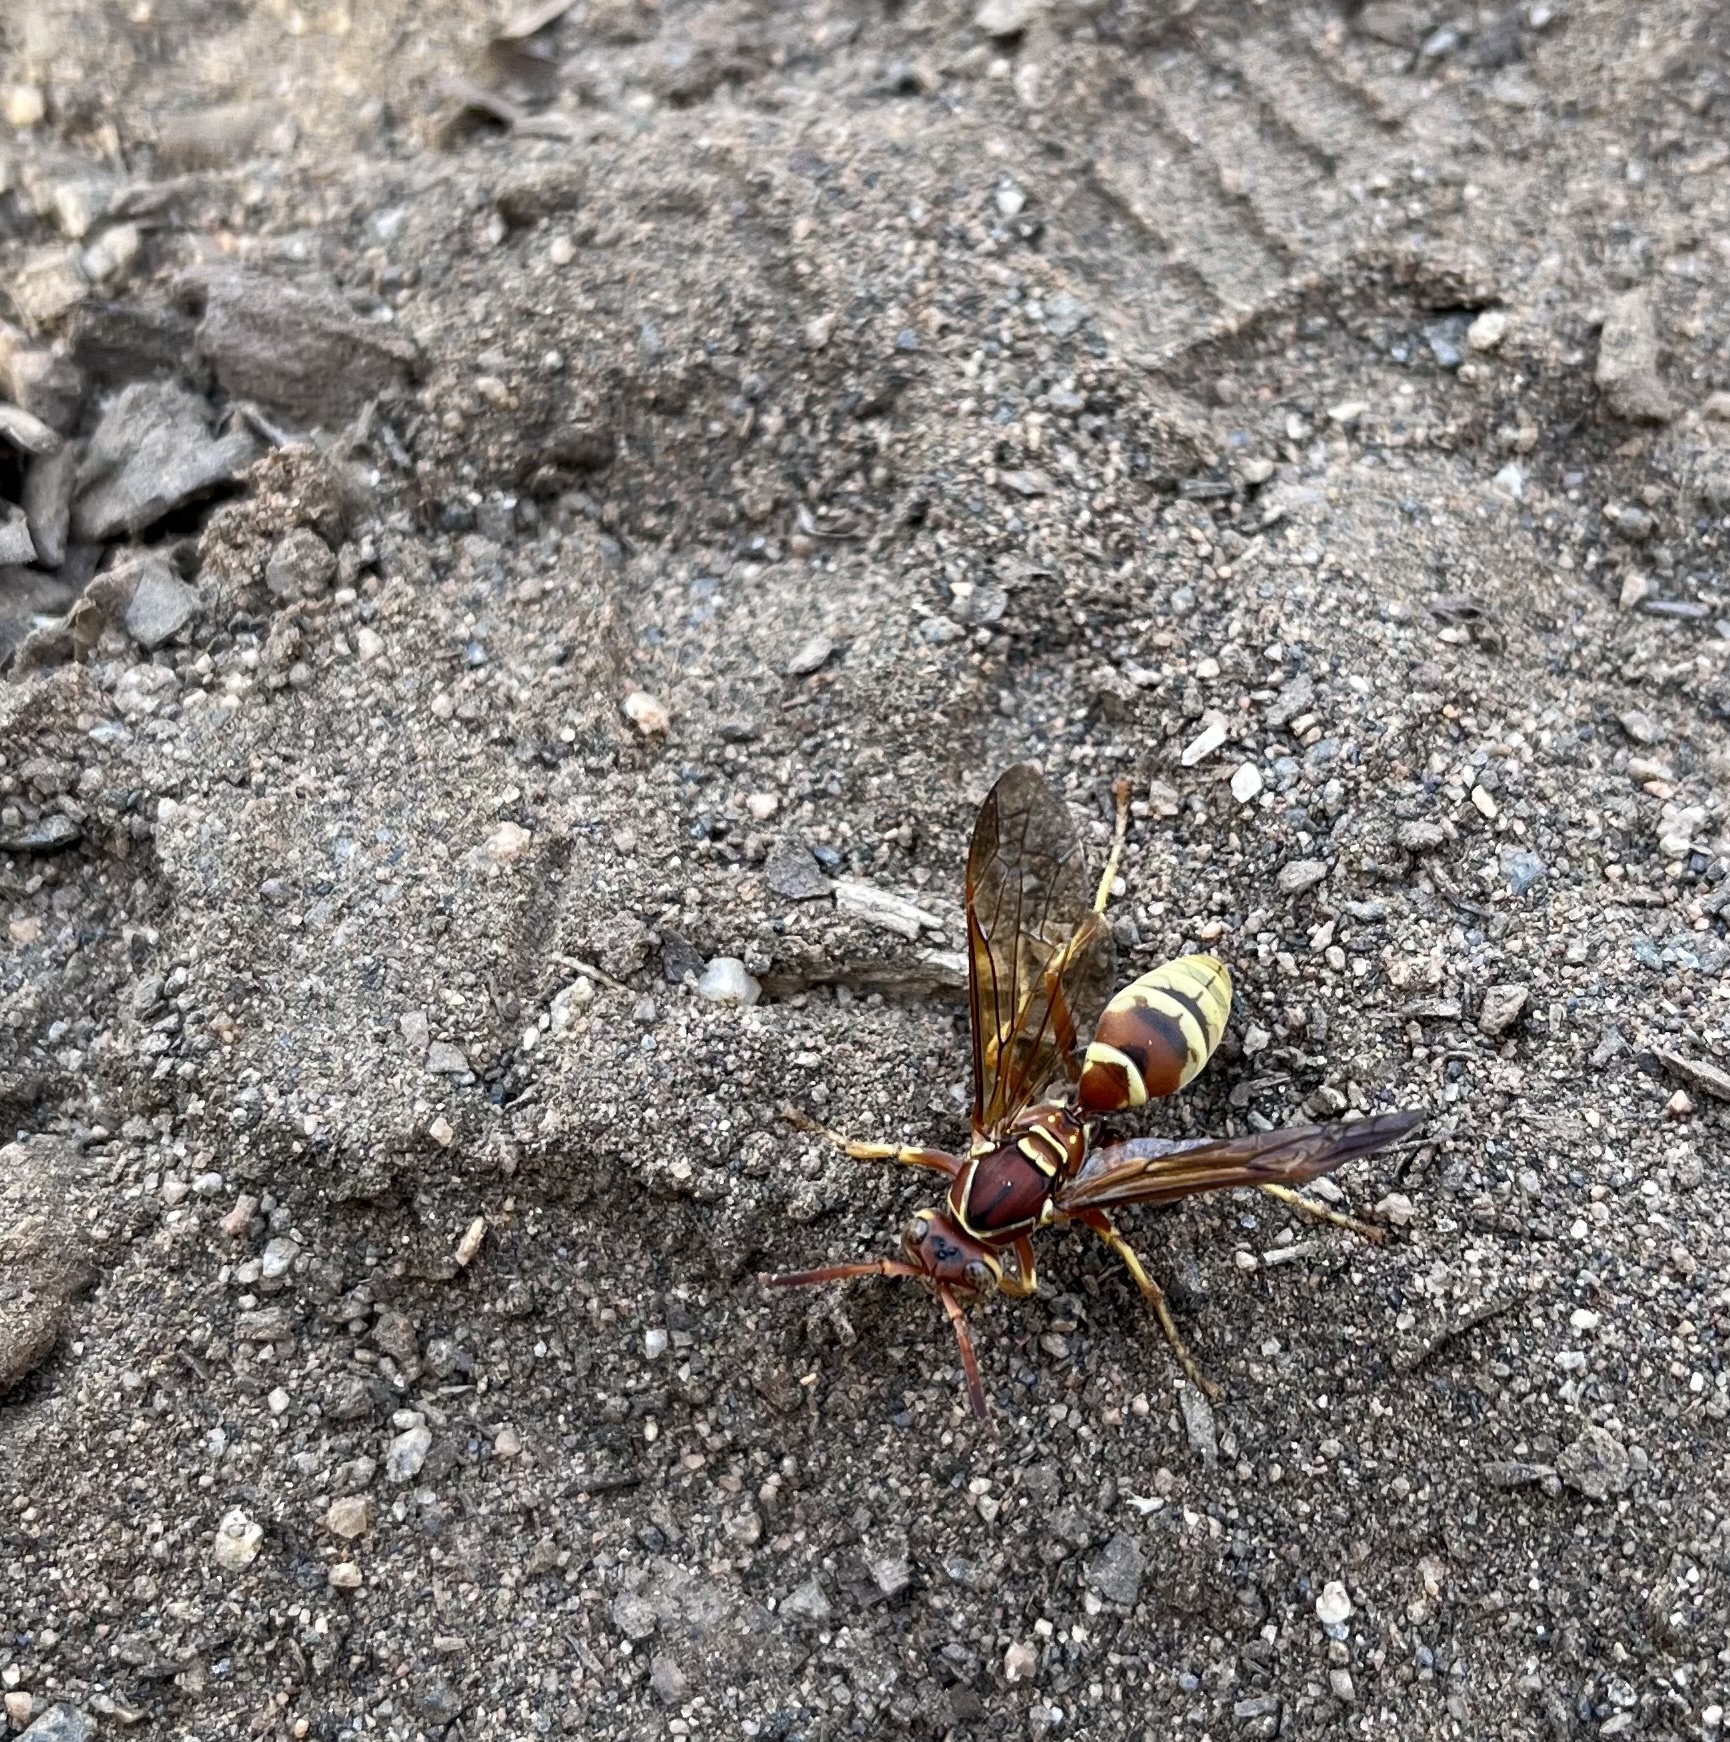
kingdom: Animalia
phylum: Arthropoda
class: Insecta
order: Hymenoptera
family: Eumenidae
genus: Polistes
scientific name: Polistes dorsalis
